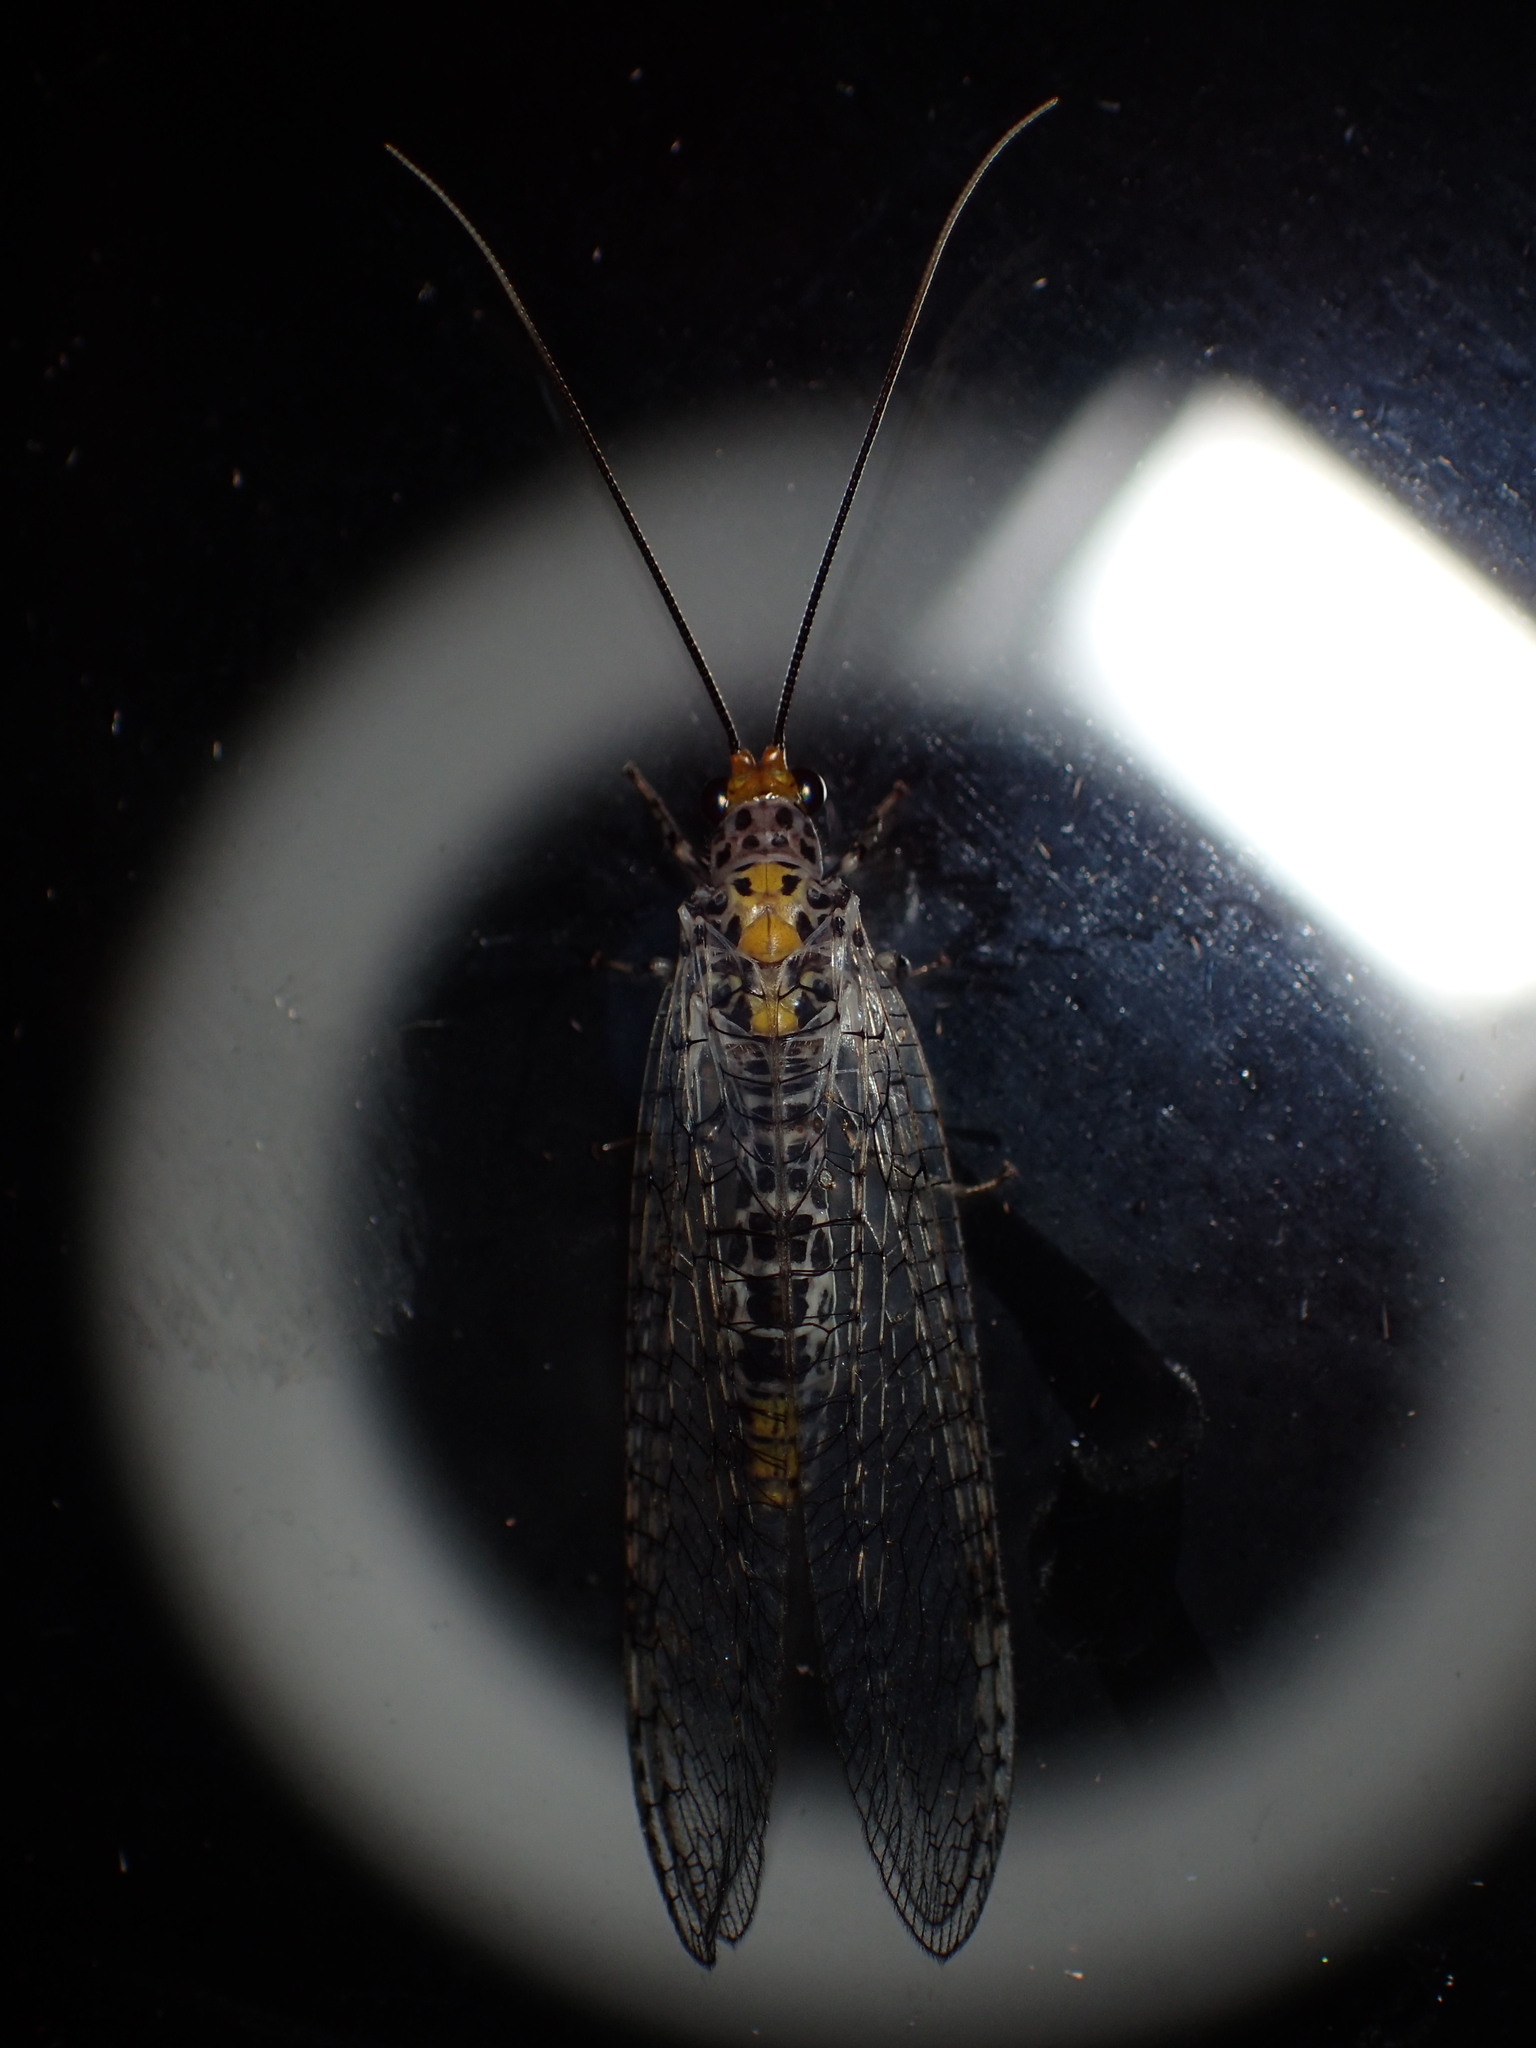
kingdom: Animalia
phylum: Arthropoda
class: Insecta
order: Neuroptera
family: Chrysopidae
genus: Abachrysa
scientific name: Abachrysa eureka
